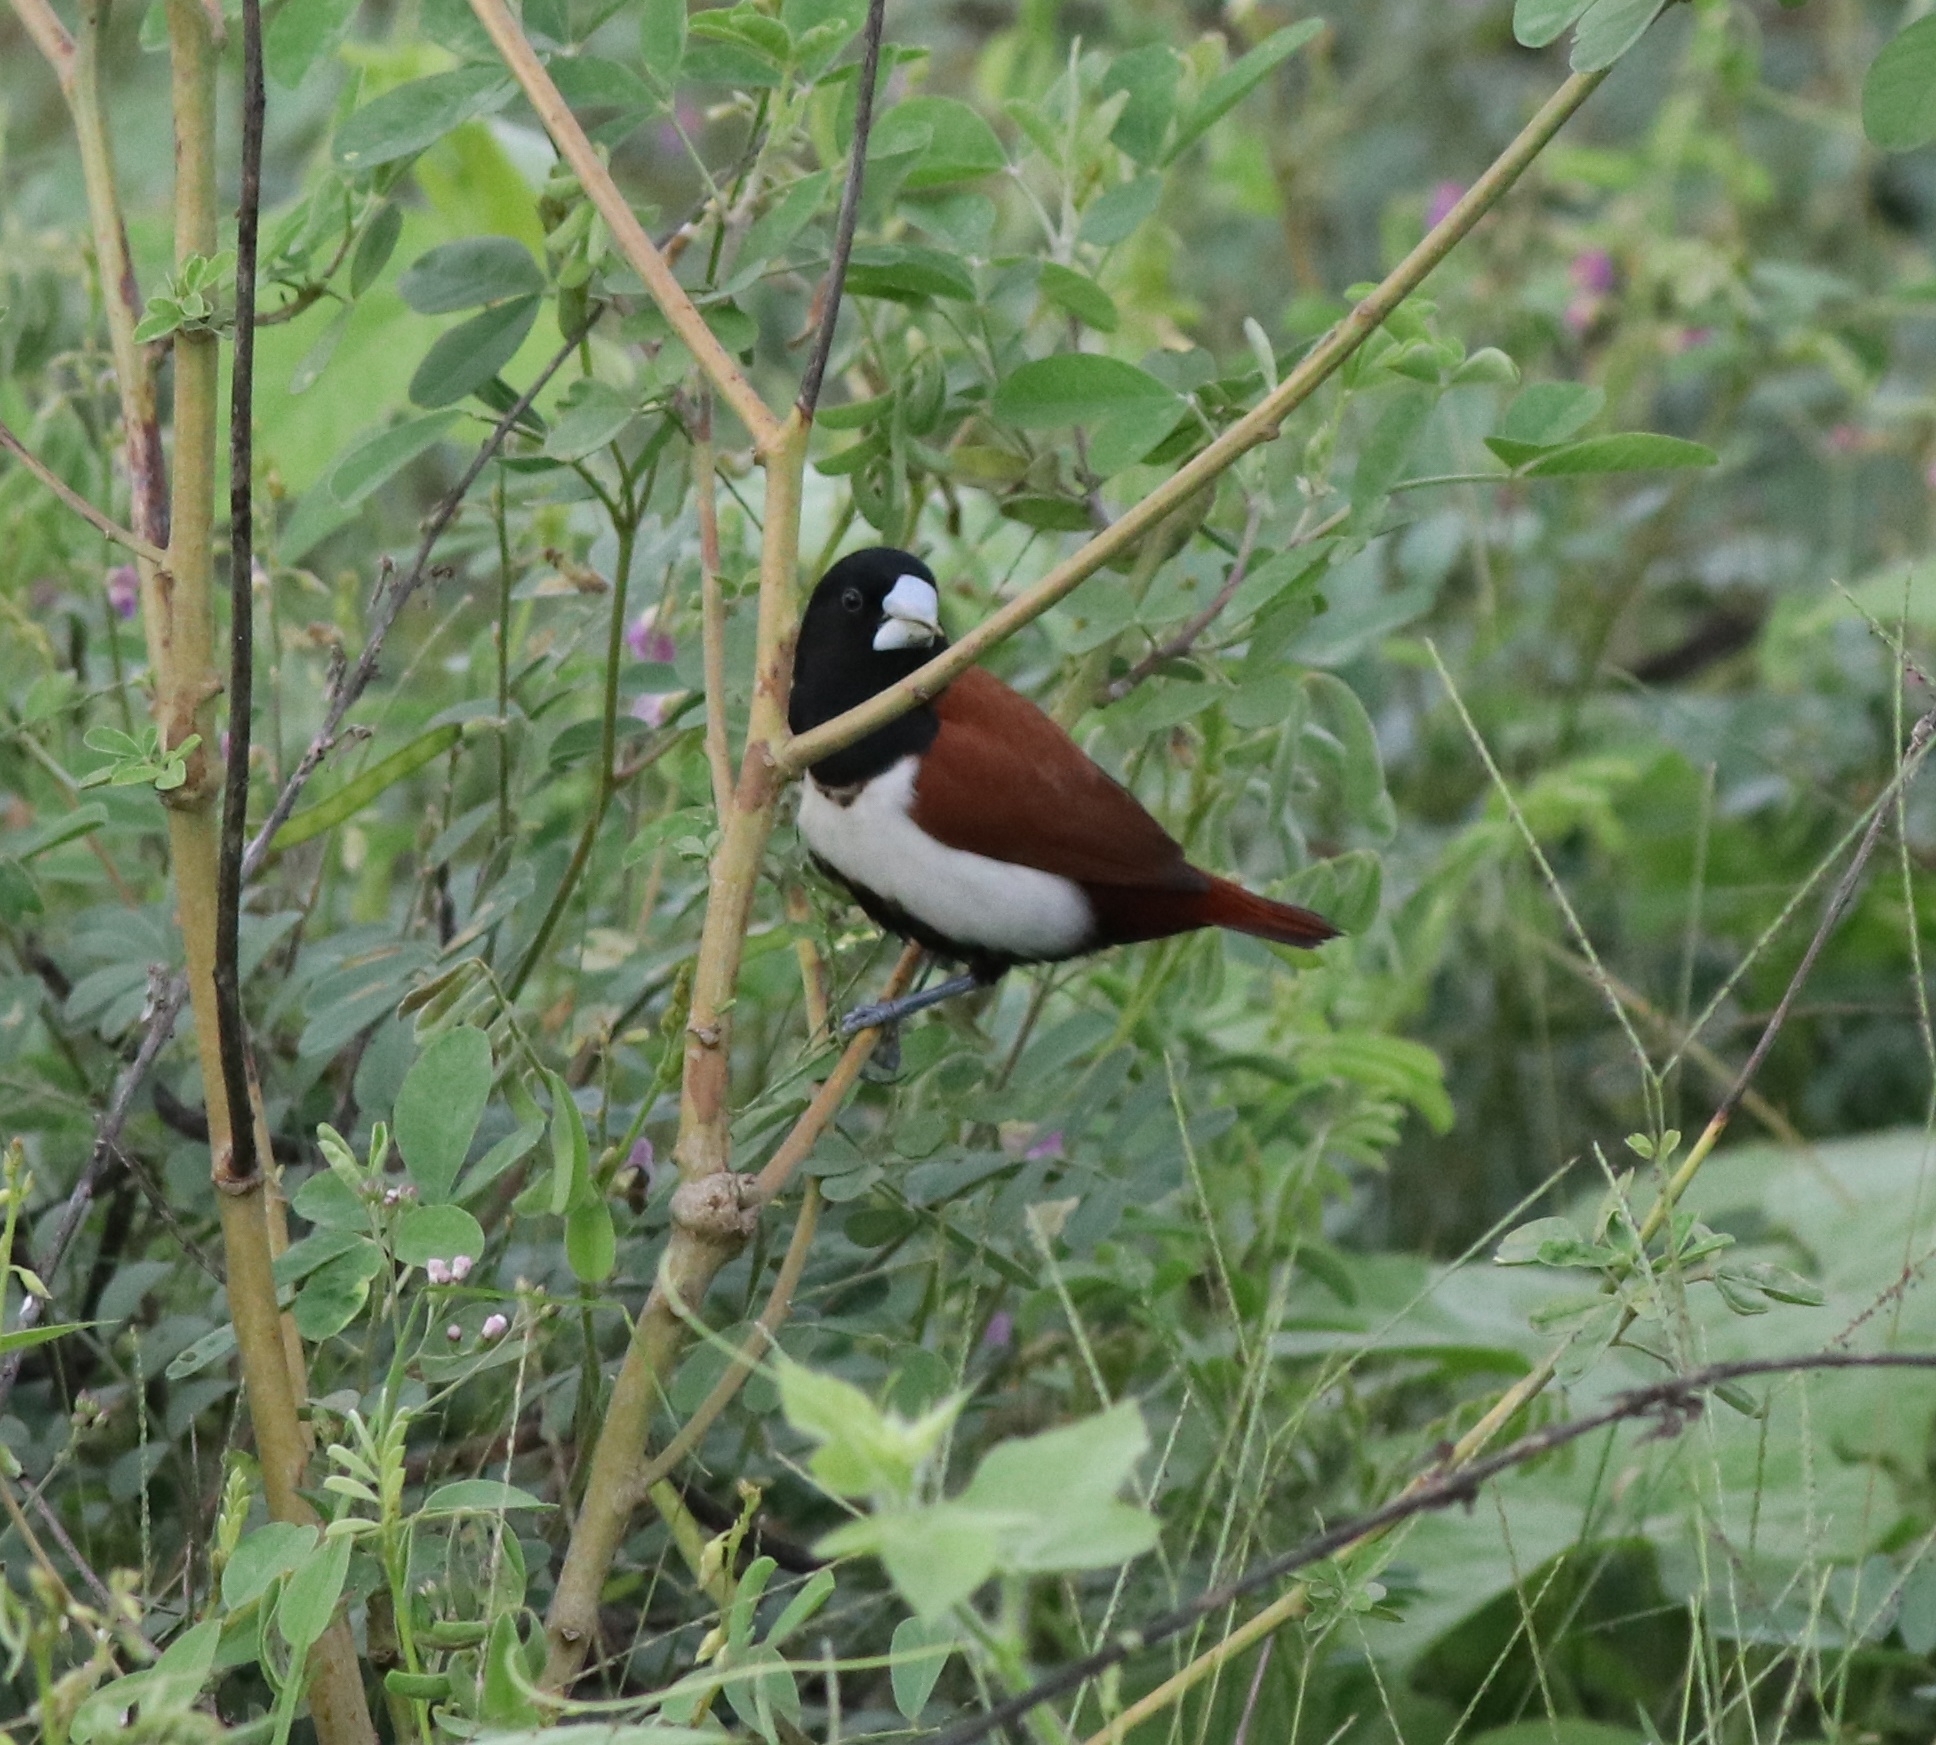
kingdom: Animalia
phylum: Chordata
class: Aves
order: Passeriformes
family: Estrildidae
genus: Lonchura
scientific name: Lonchura malacca
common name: Tricolored munia
